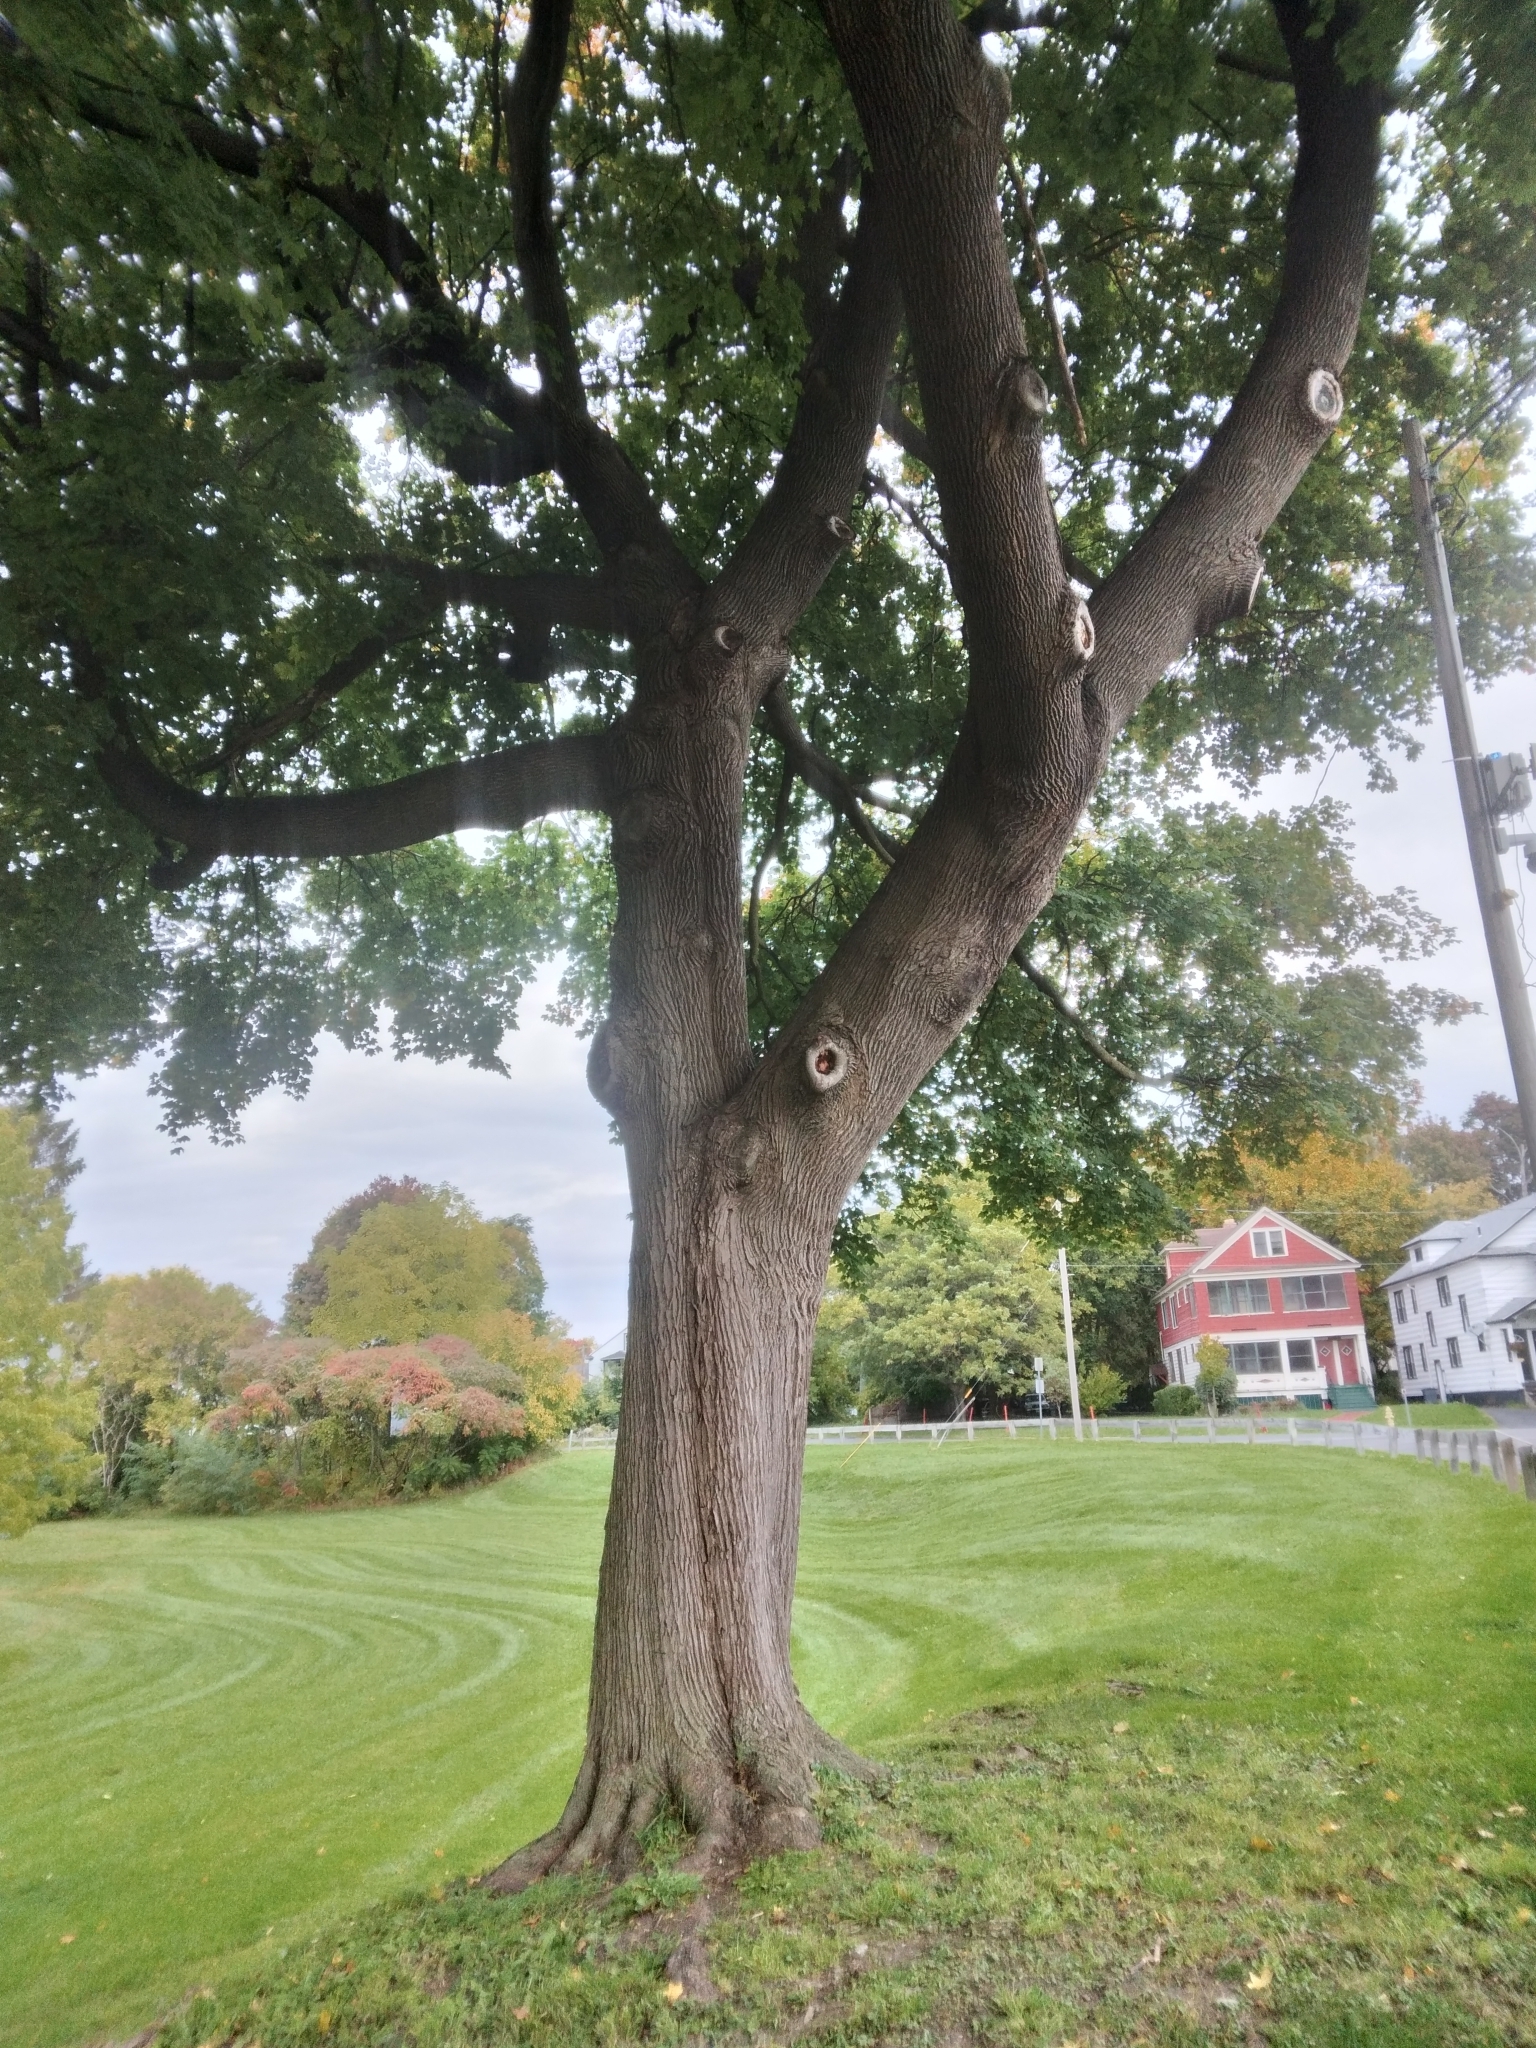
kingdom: Plantae
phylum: Tracheophyta
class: Magnoliopsida
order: Sapindales
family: Sapindaceae
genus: Acer
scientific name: Acer platanoides
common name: Norway maple
